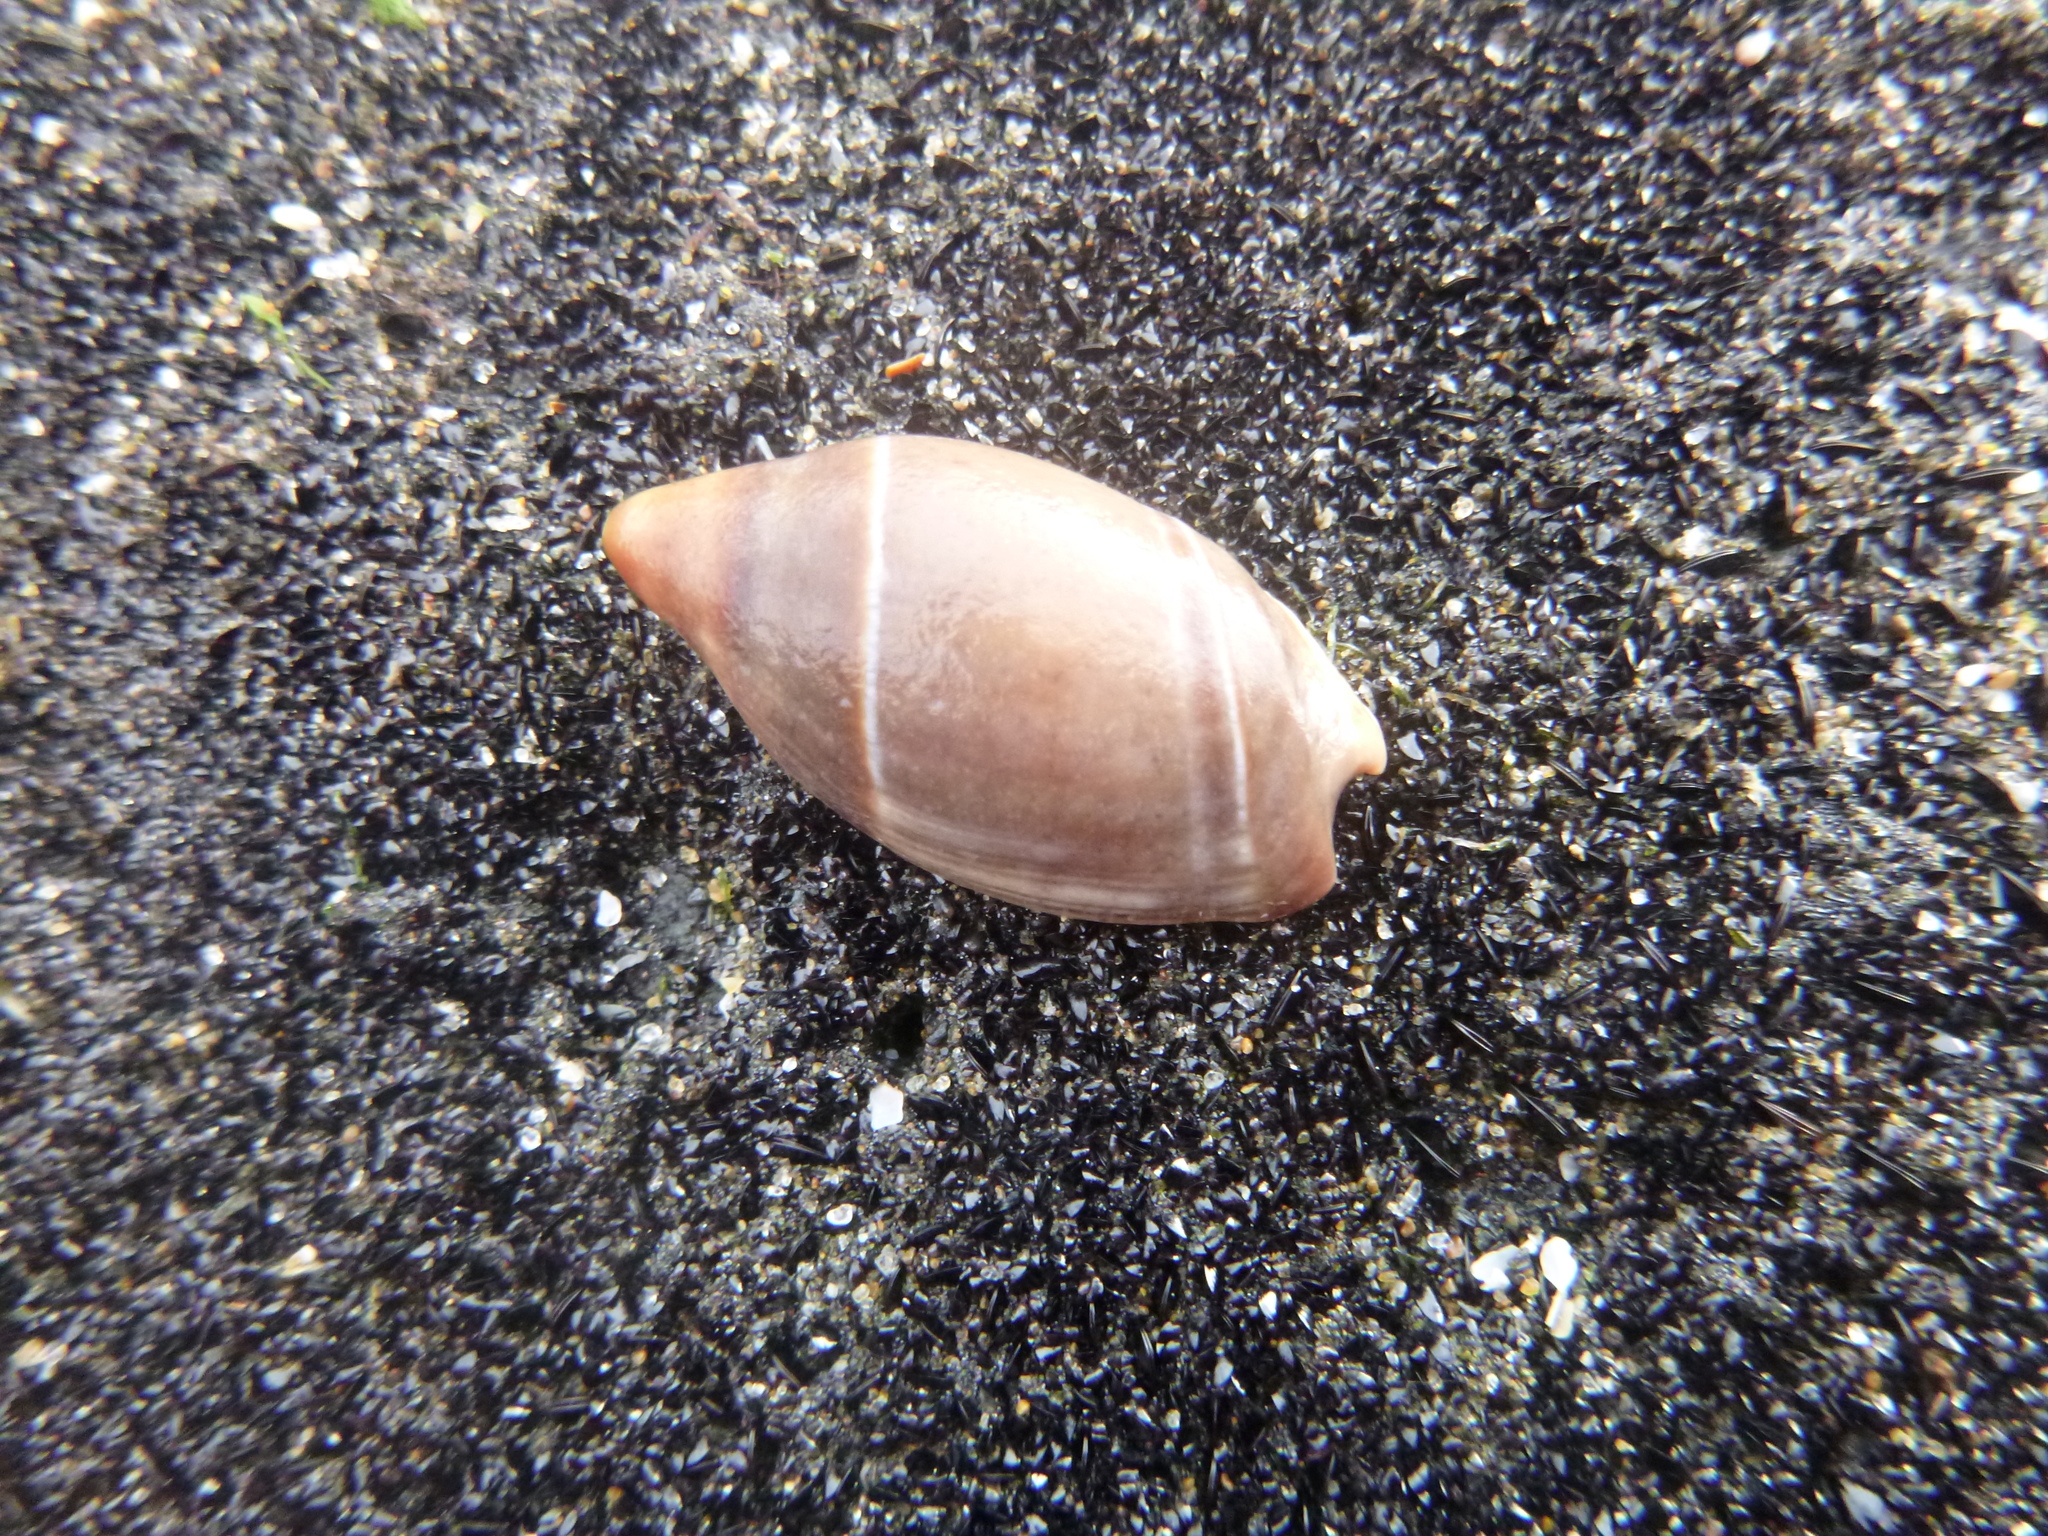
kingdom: Animalia
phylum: Mollusca
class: Gastropoda
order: Neogastropoda
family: Ancillariidae
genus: Amalda
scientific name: Amalda australis
